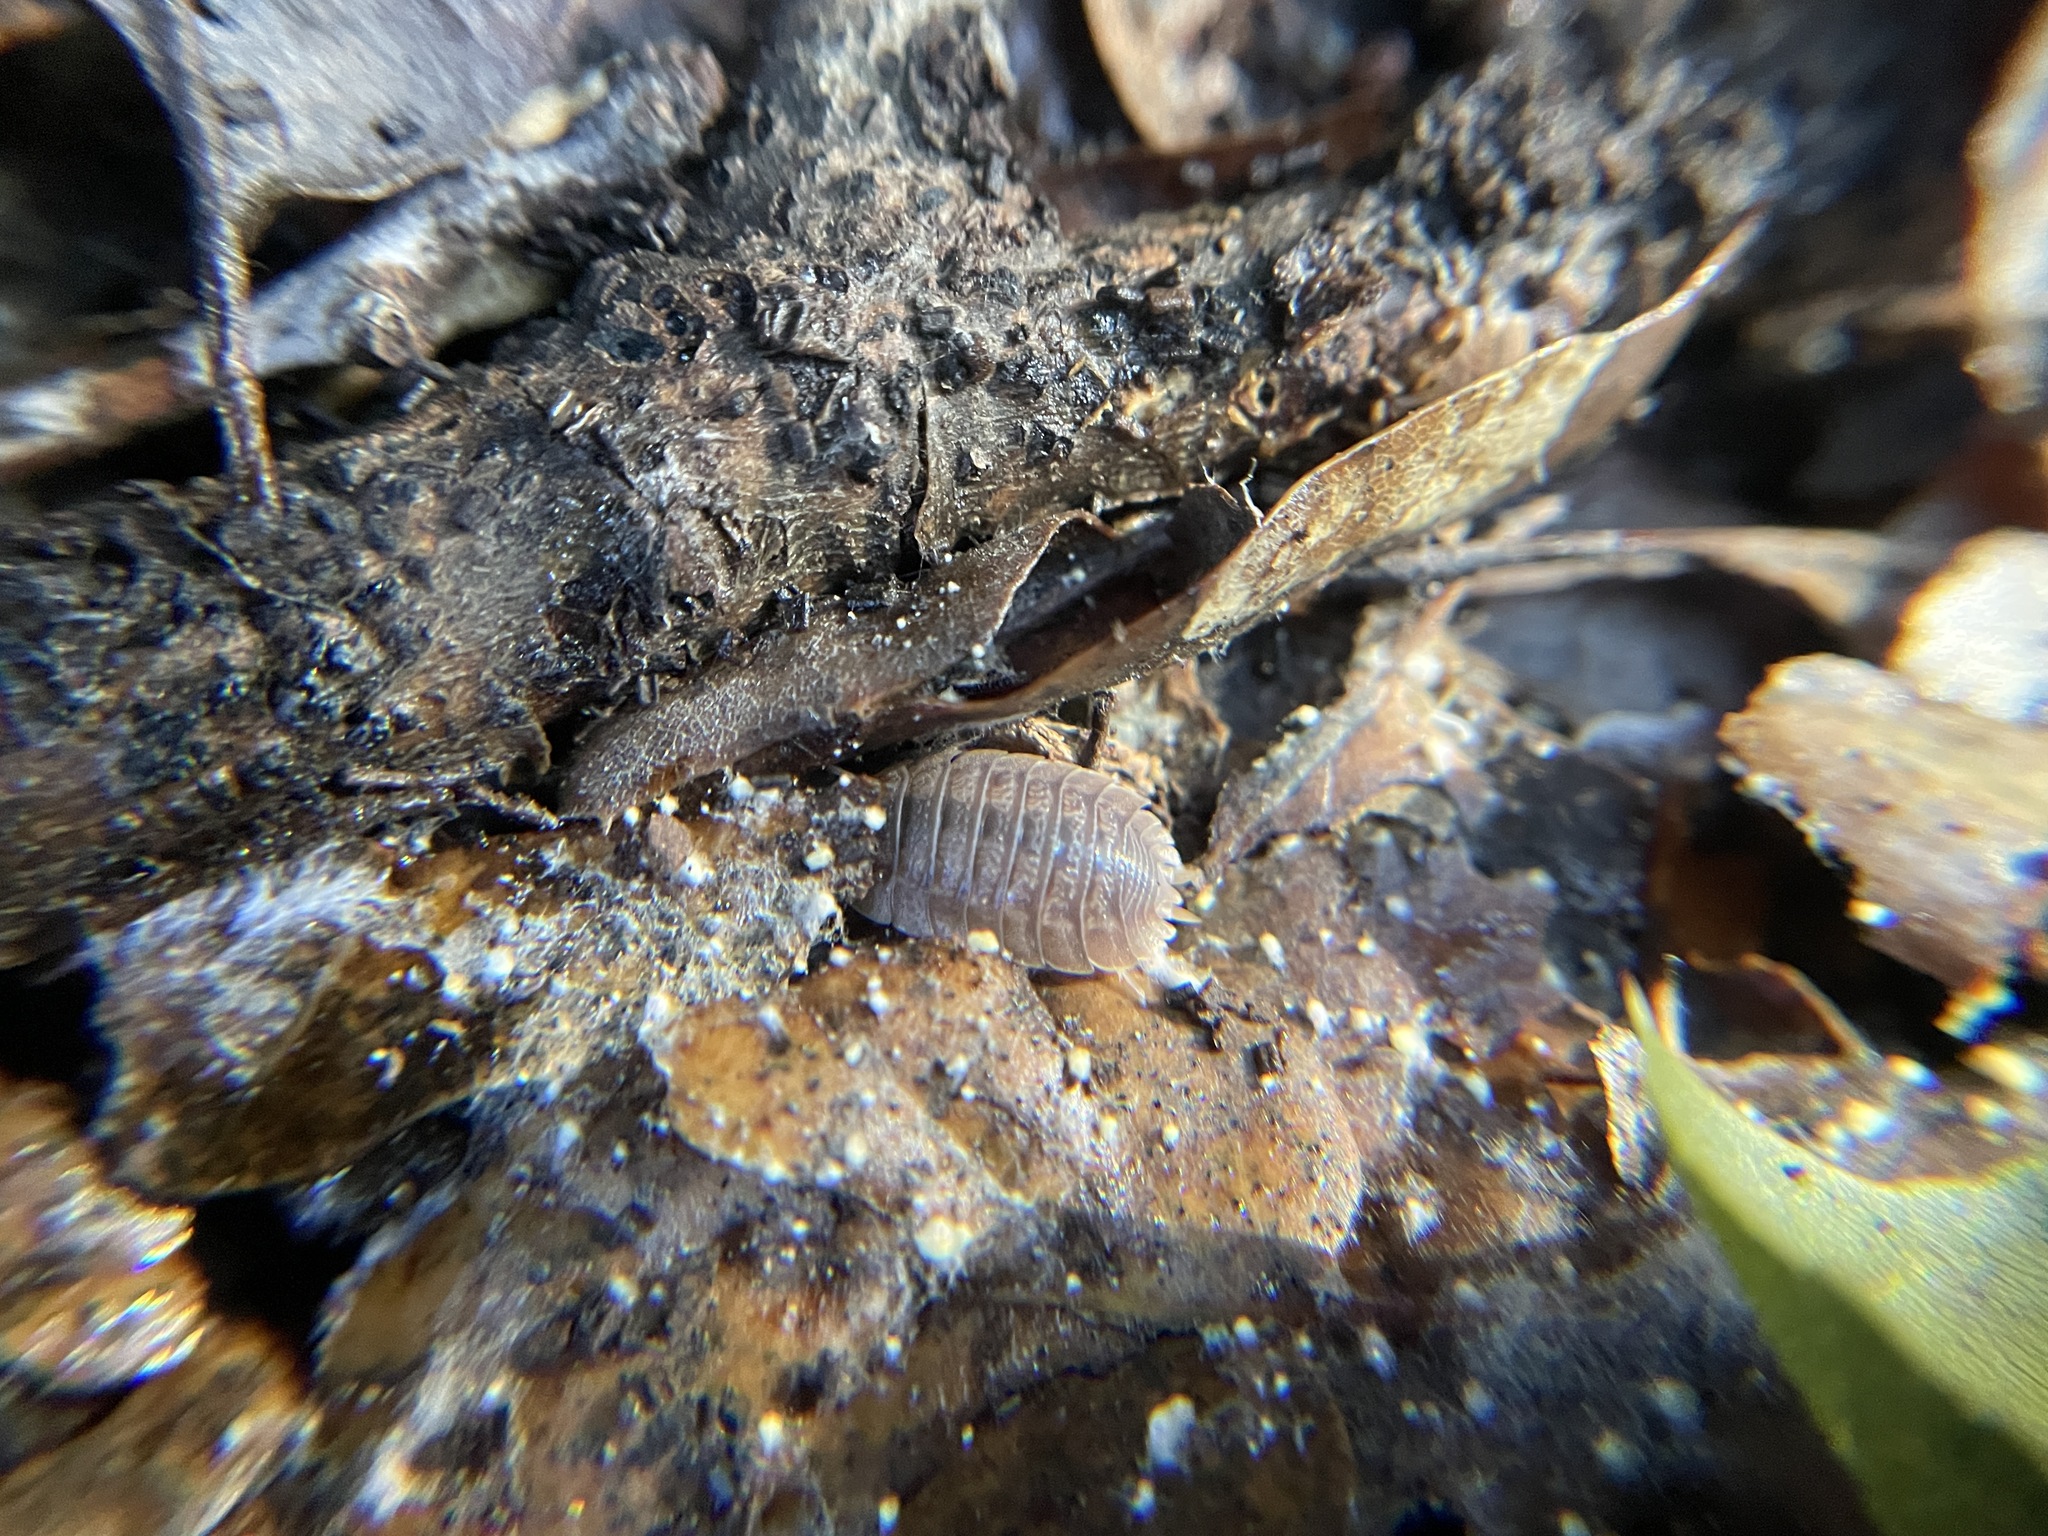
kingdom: Animalia
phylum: Arthropoda
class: Malacostraca
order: Isopoda
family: Porcellionidae
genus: Porcellio
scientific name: Porcellio dilatatus
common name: Isopod
